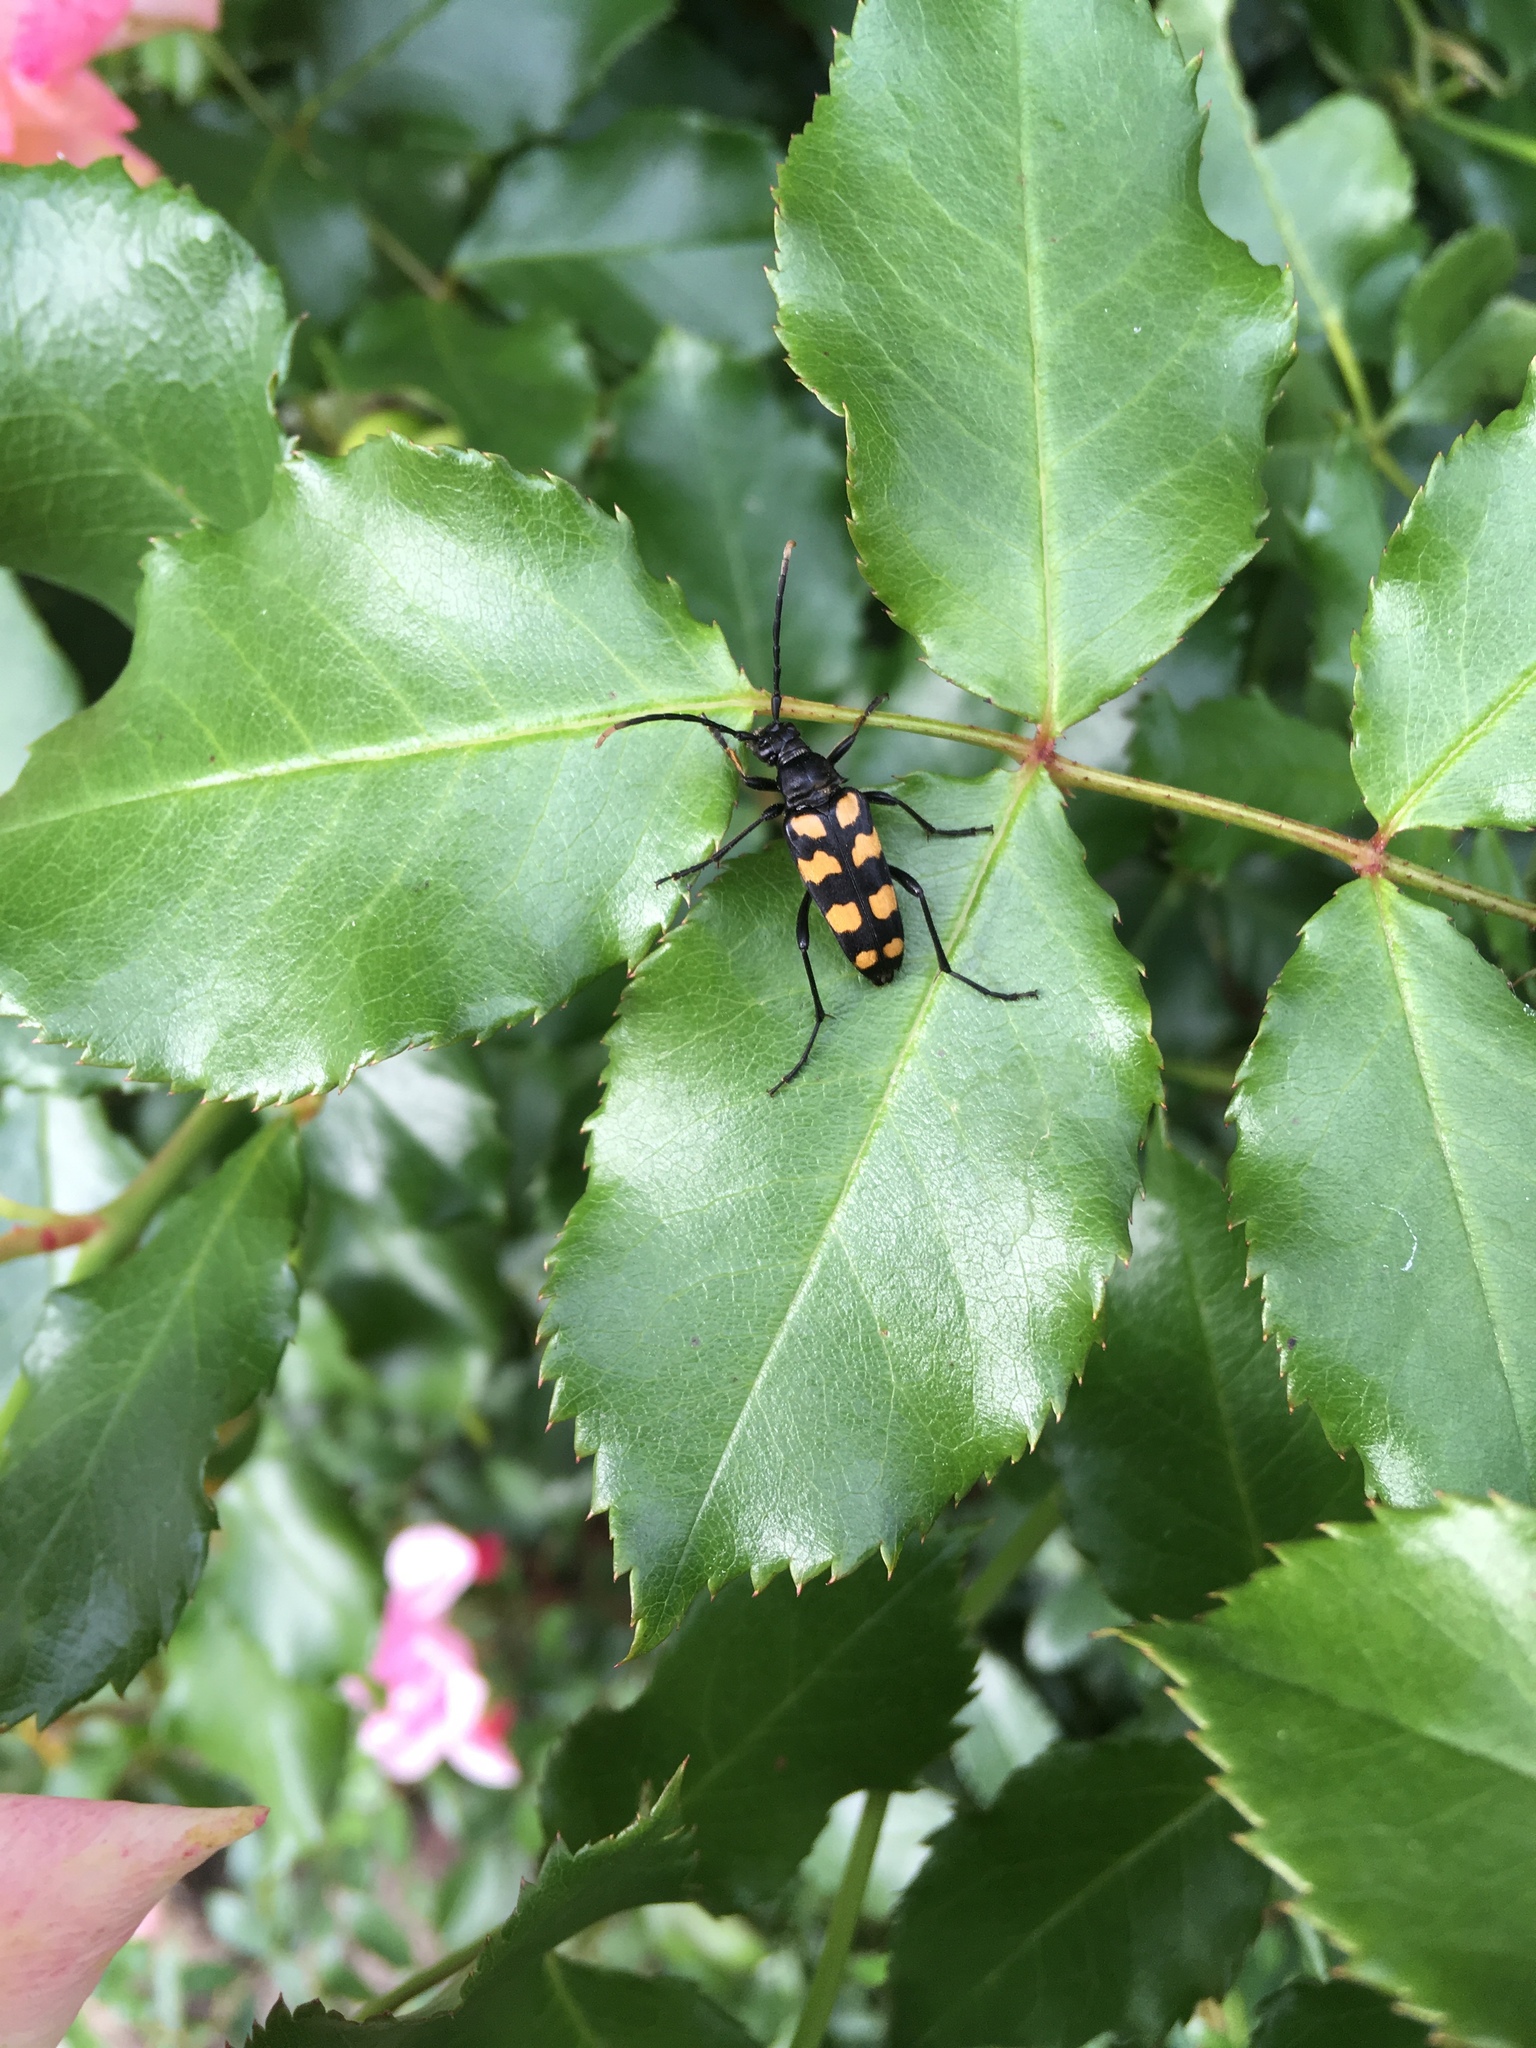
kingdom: Animalia
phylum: Arthropoda
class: Insecta
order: Coleoptera
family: Cerambycidae
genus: Leptura
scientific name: Leptura quadrifasciata
